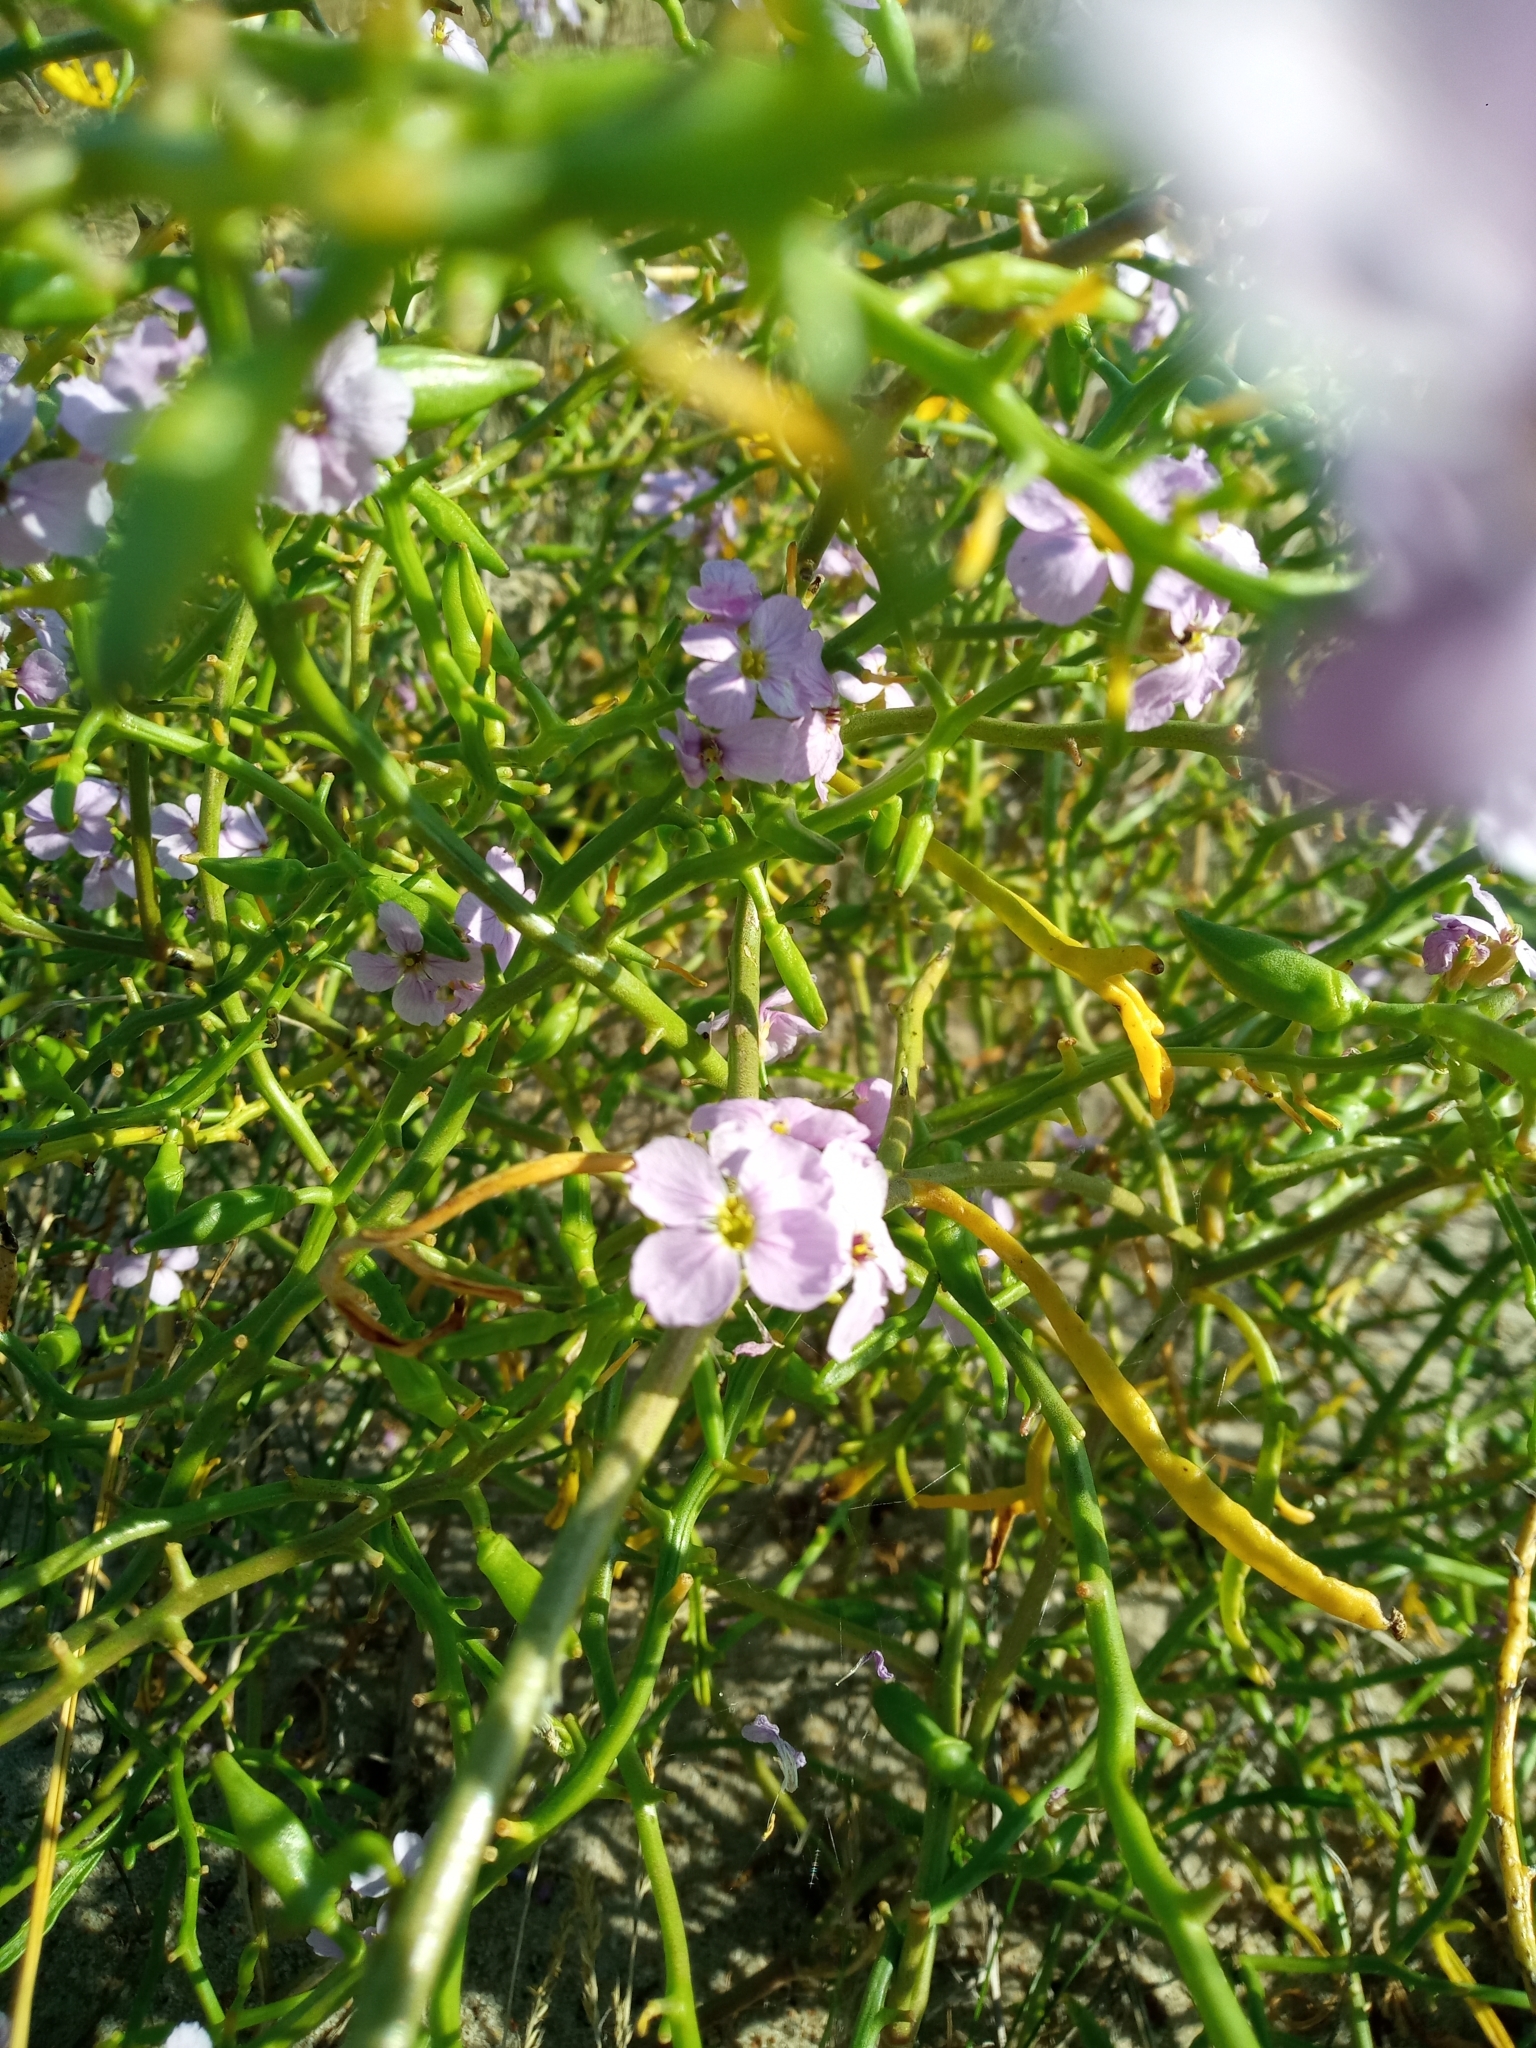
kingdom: Plantae
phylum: Tracheophyta
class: Magnoliopsida
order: Brassicales
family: Brassicaceae
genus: Cakile
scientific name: Cakile maritima
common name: Sea rocket
